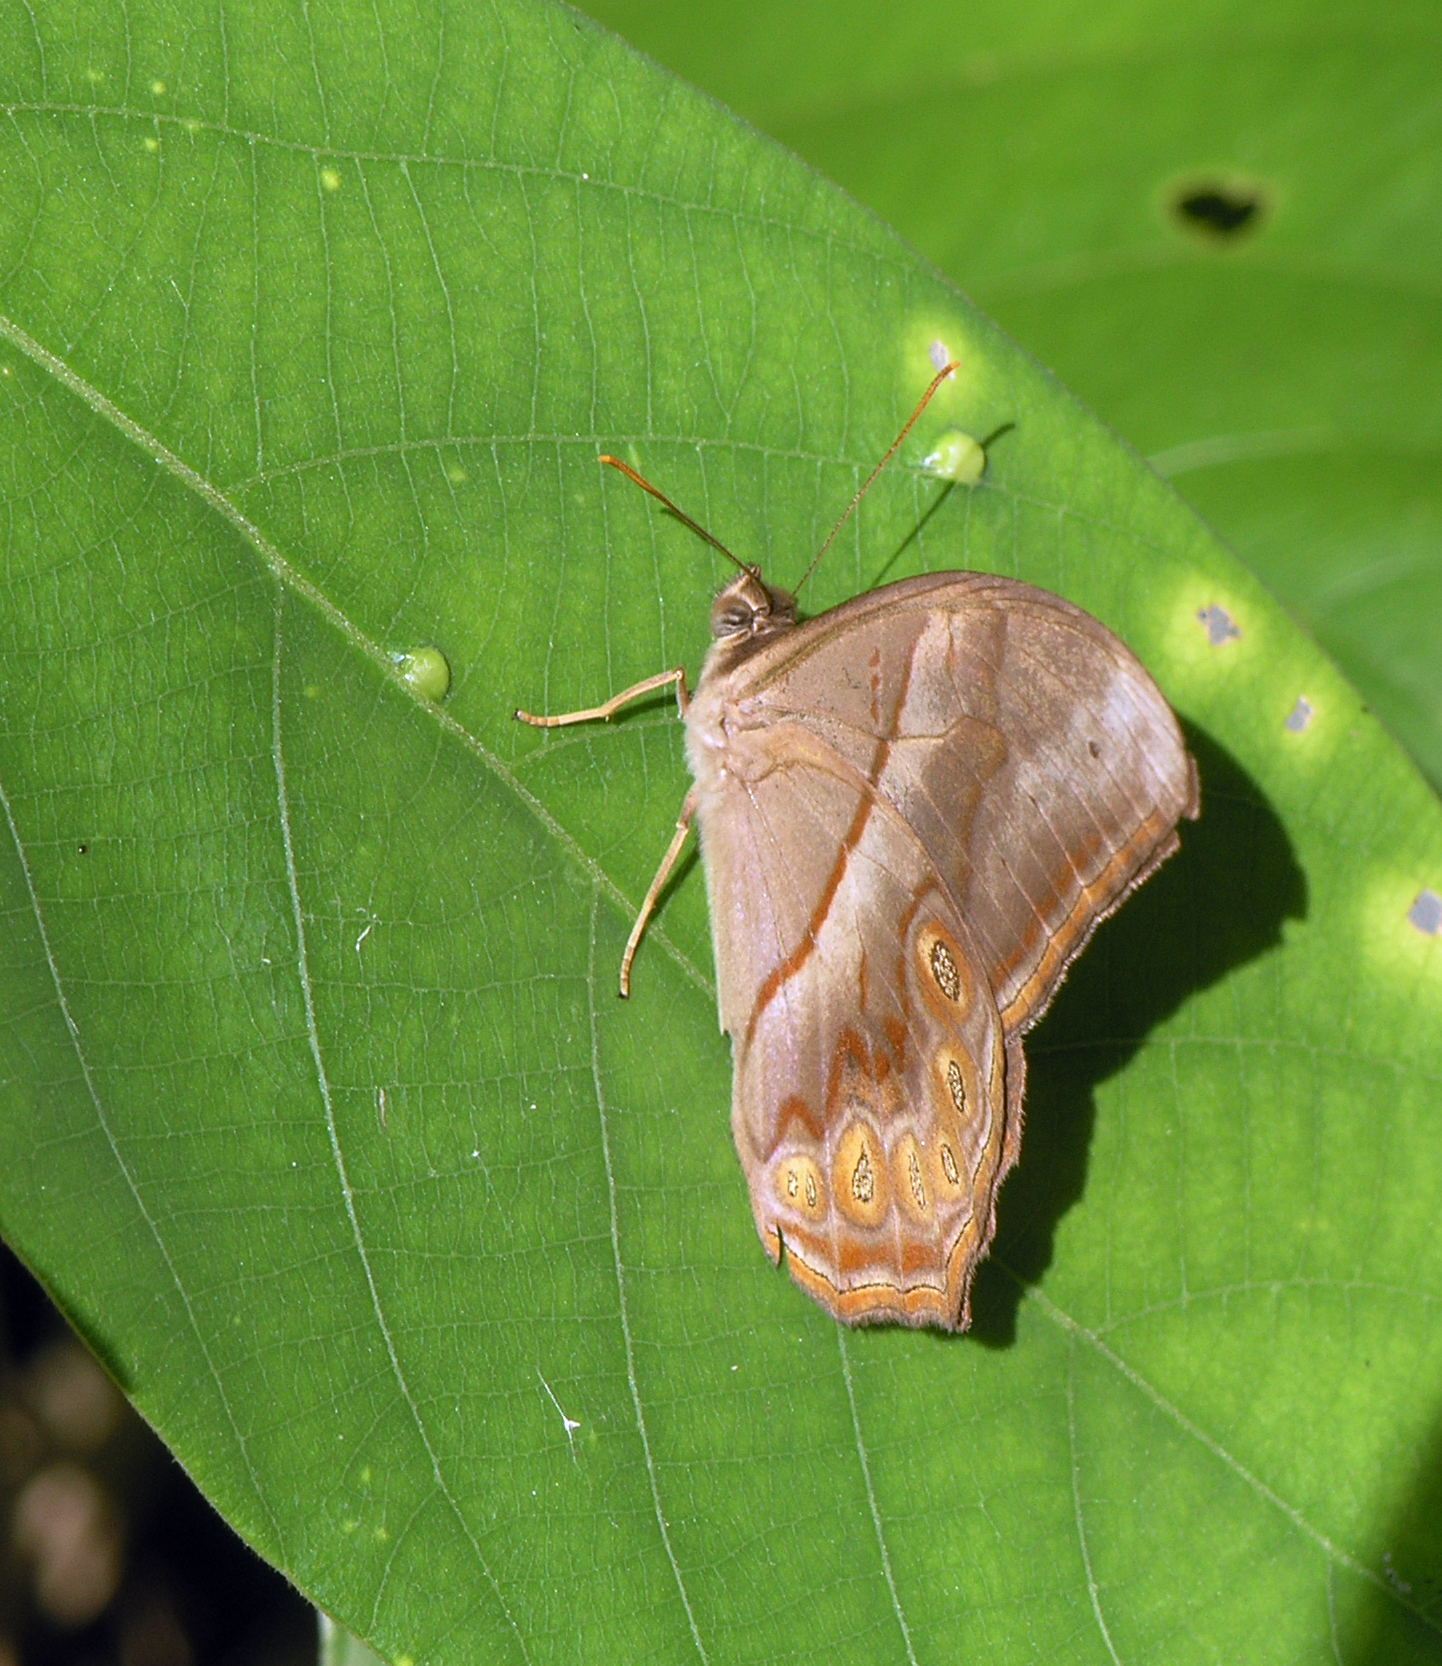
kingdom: Animalia
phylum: Arthropoda
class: Insecta
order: Lepidoptera
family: Nymphalidae
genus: Lethe
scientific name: Lethe minerva
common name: Banded red forester
